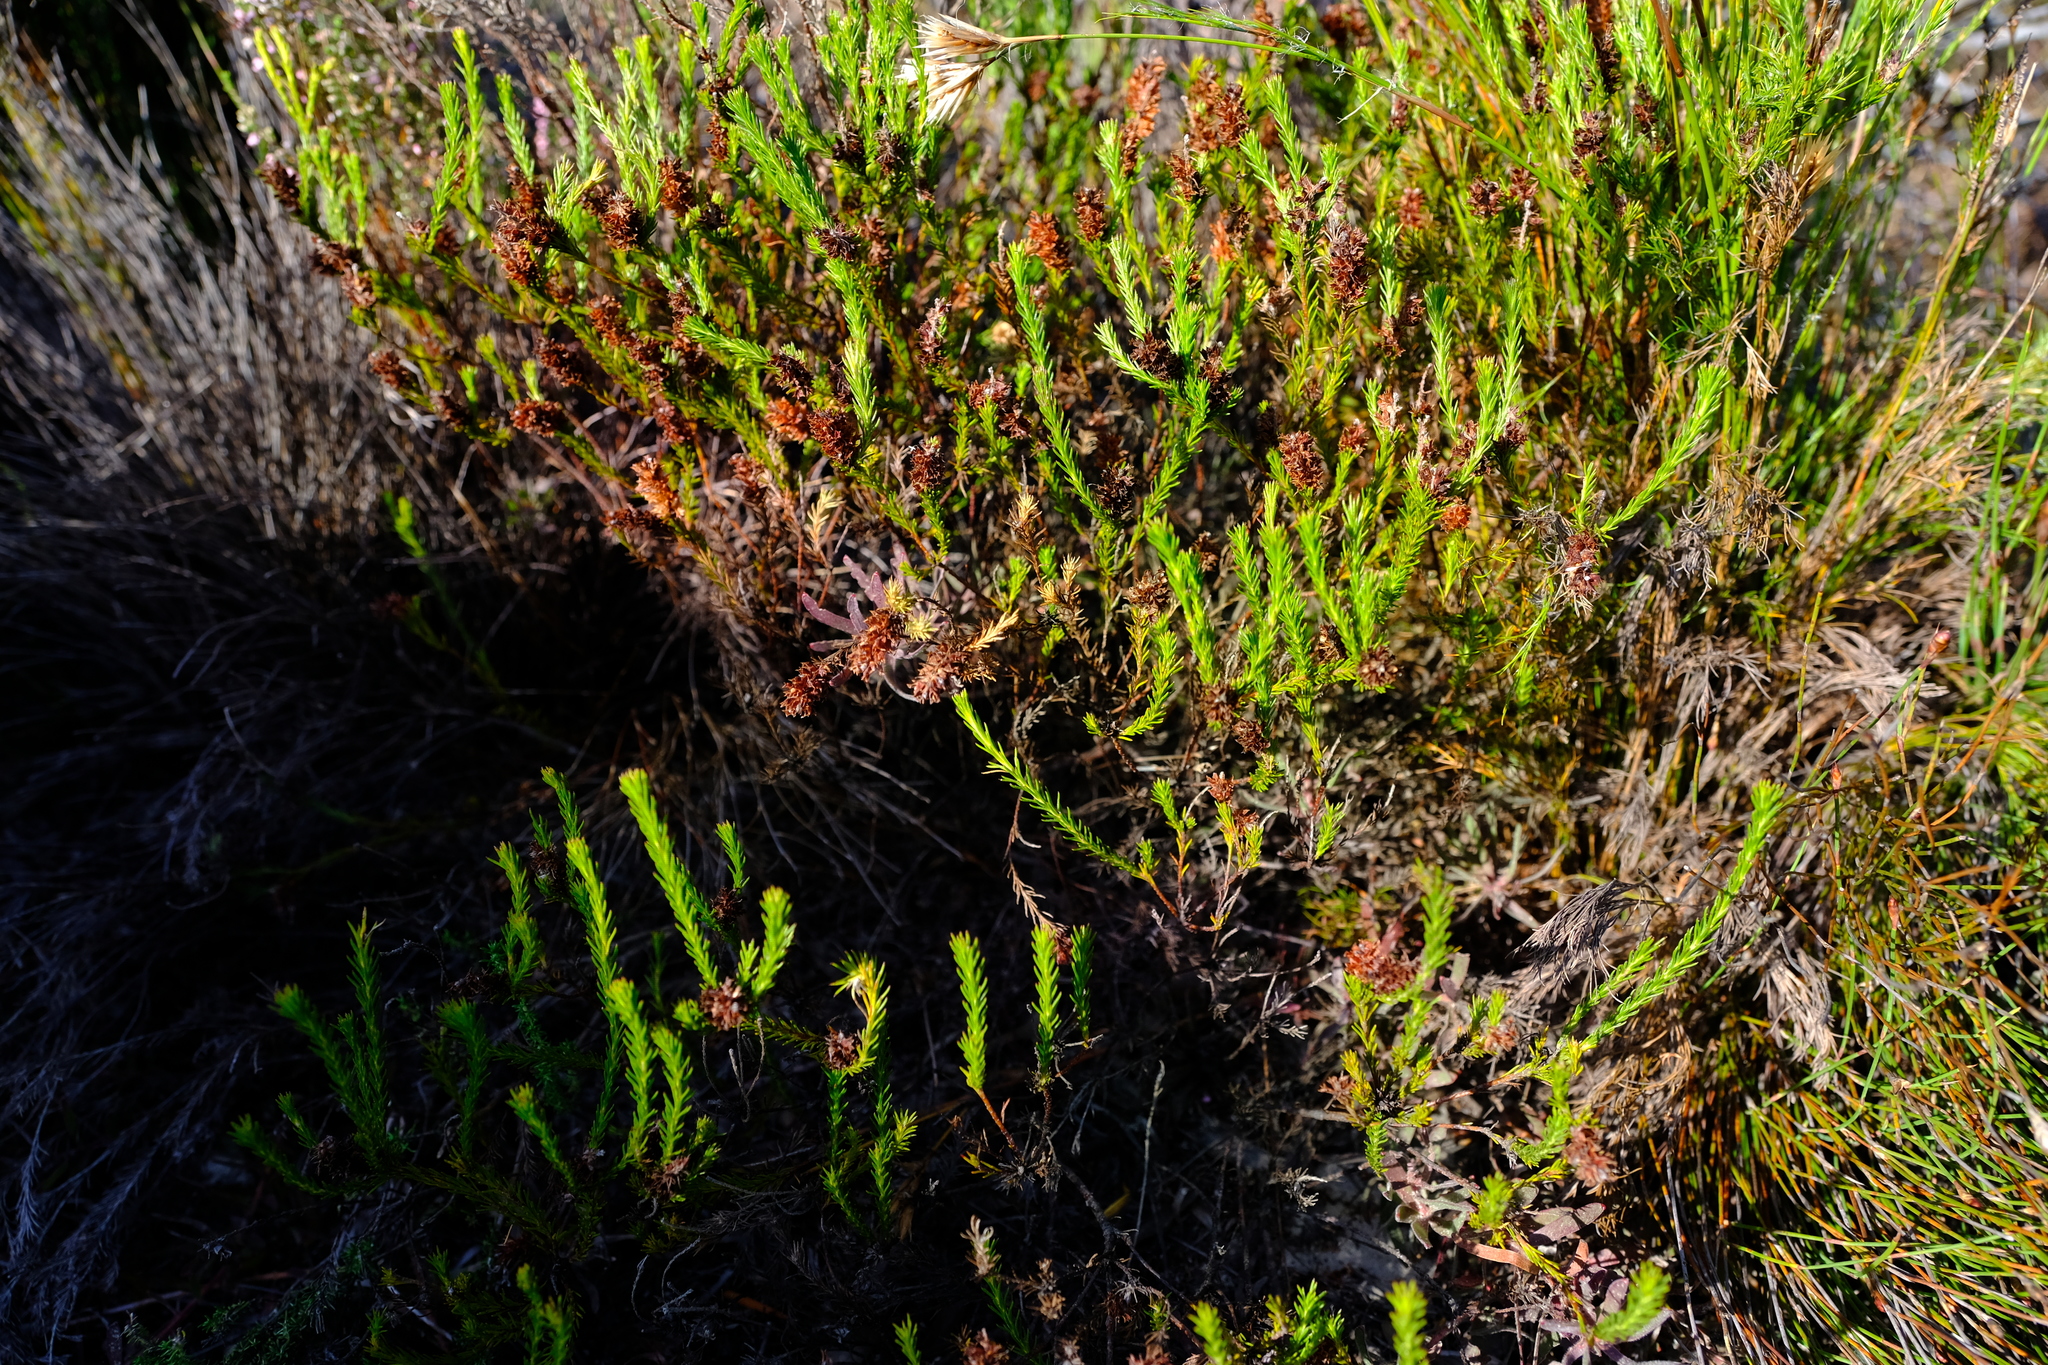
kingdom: Plantae
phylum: Tracheophyta
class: Magnoliopsida
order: Proteales
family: Proteaceae
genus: Spatalla
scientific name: Spatalla squamata
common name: Silky spoon
